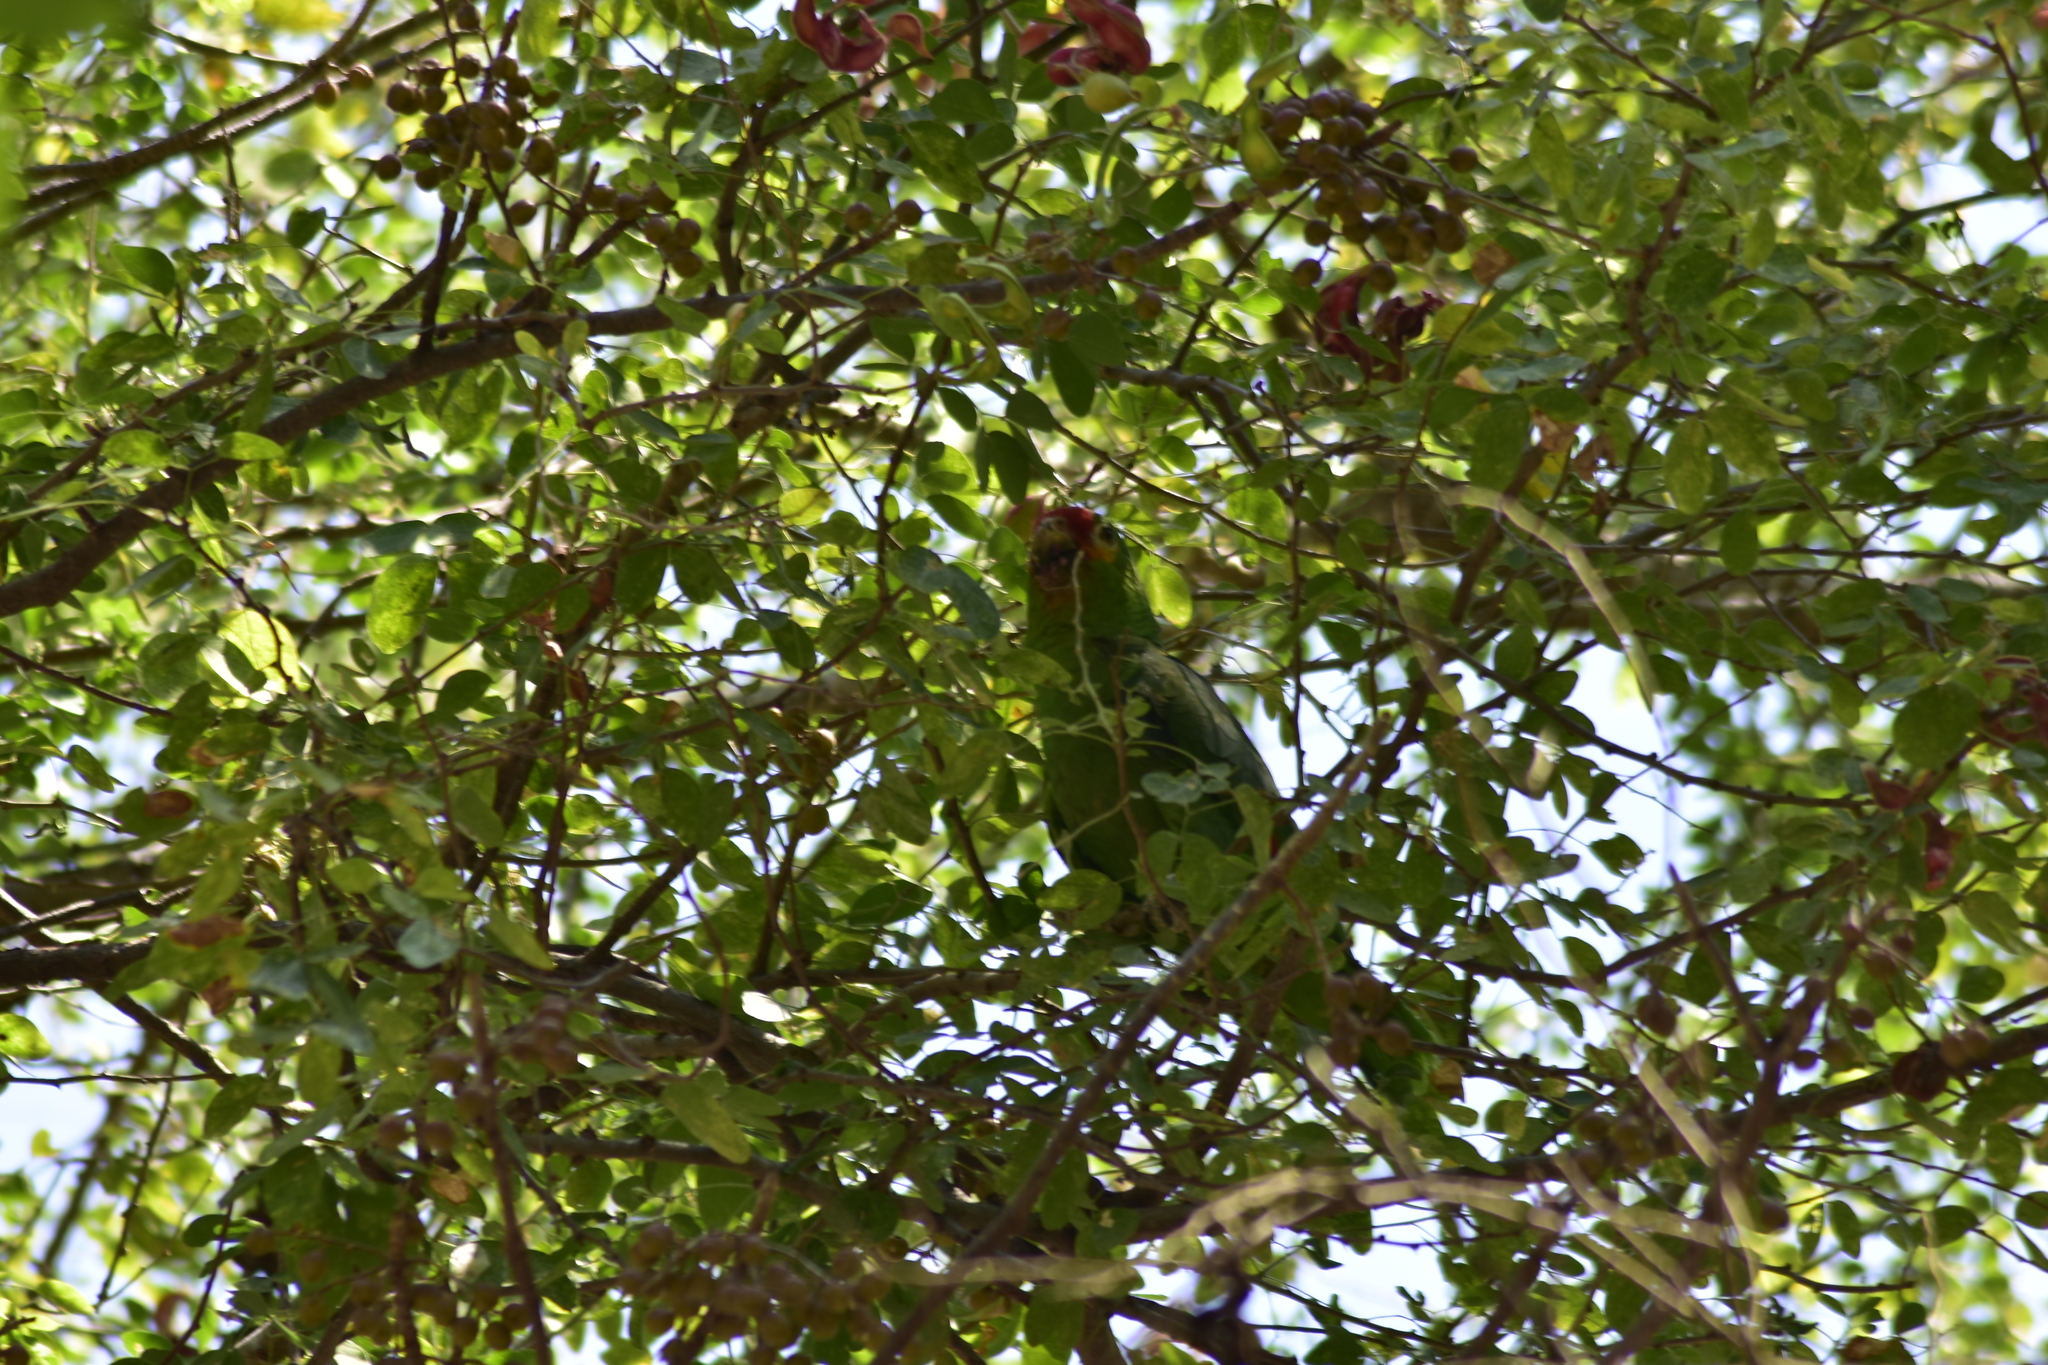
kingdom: Animalia
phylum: Chordata
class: Aves
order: Psittaciformes
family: Psittacidae
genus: Amazona
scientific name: Amazona autumnalis
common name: Red-lored amazon
